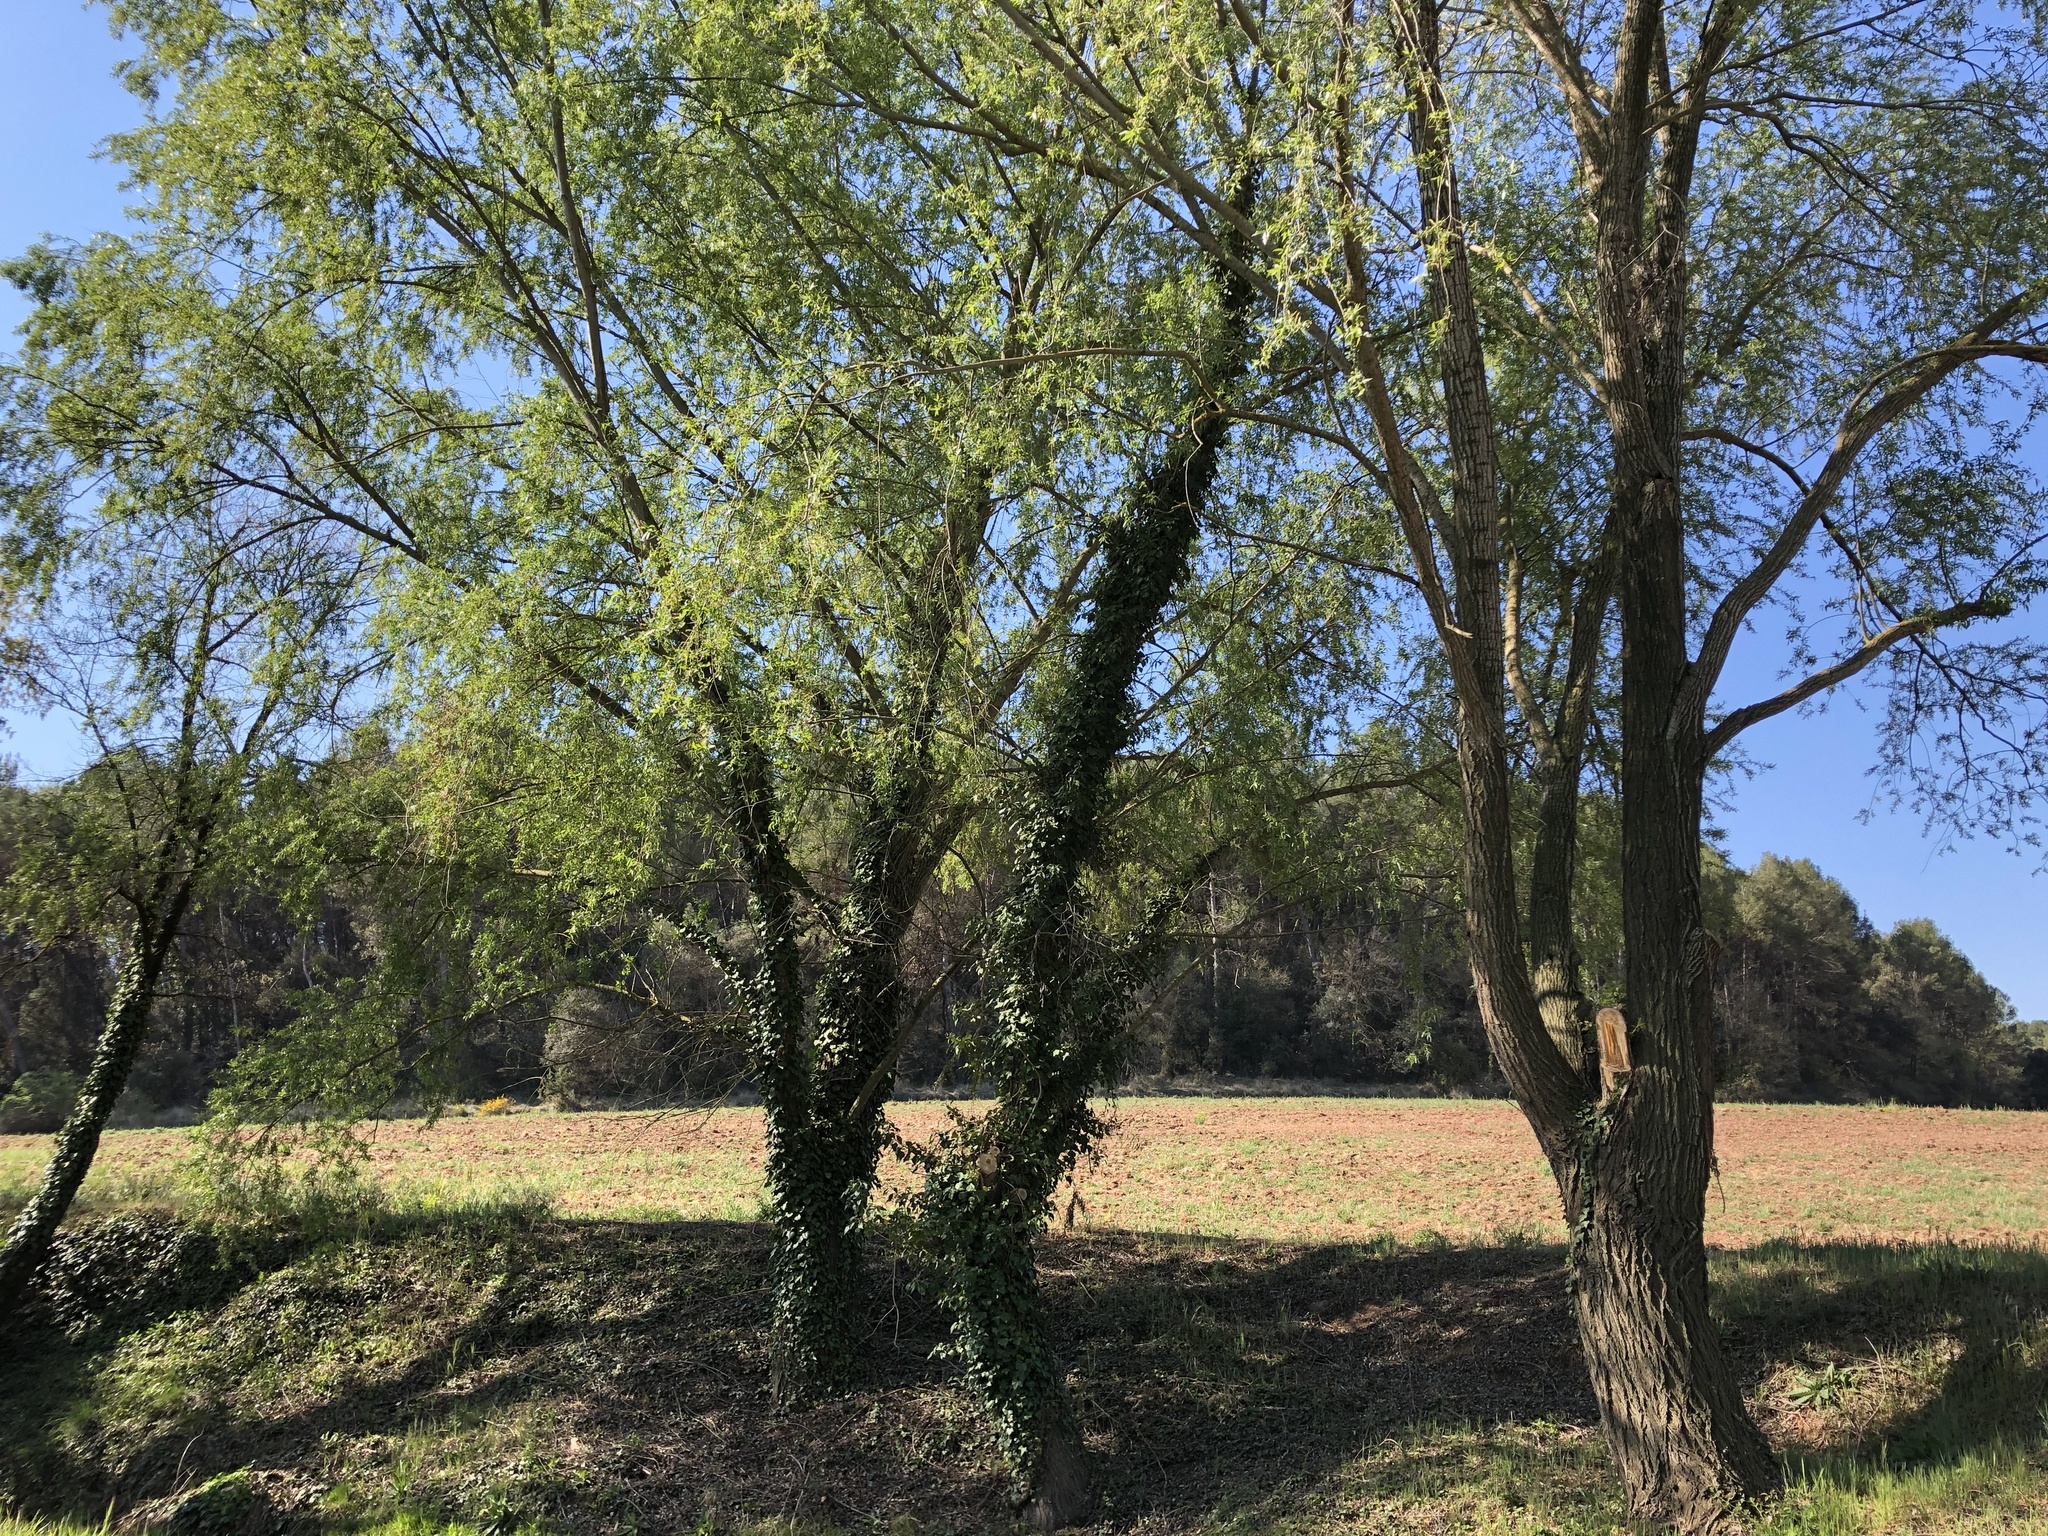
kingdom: Plantae
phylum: Tracheophyta
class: Magnoliopsida
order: Malpighiales
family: Salicaceae
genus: Salix
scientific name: Salix alba
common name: White willow
